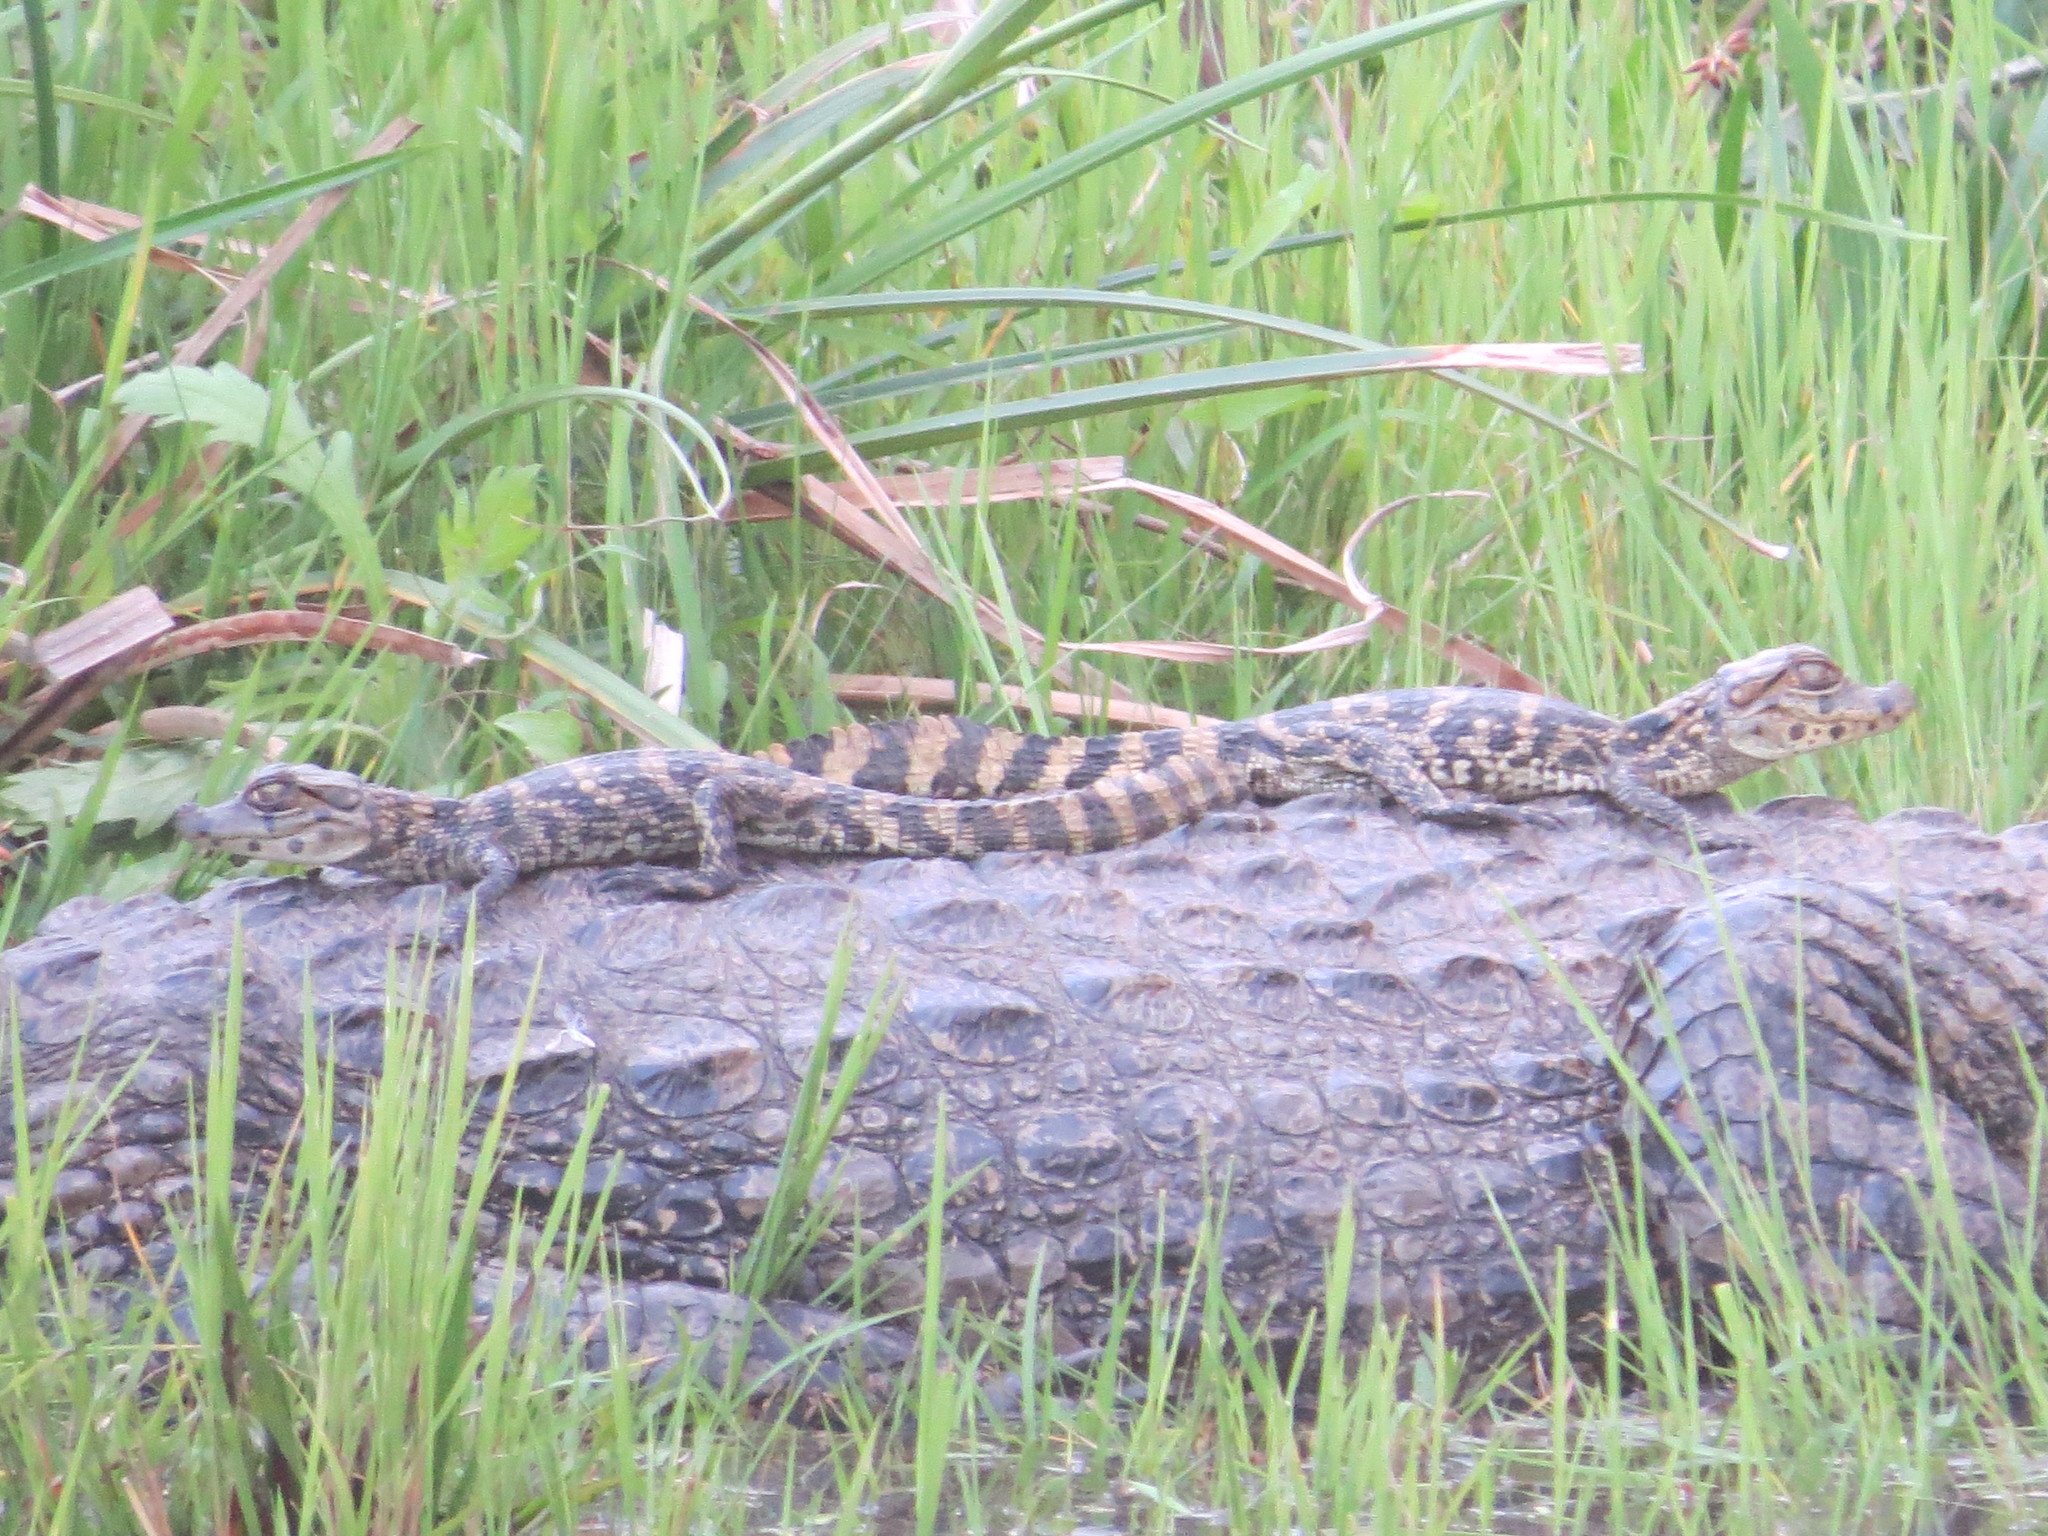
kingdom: Animalia
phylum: Chordata
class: Crocodylia
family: Alligatoridae
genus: Caiman
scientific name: Caiman latirostris
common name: Broad-snouted caiman
